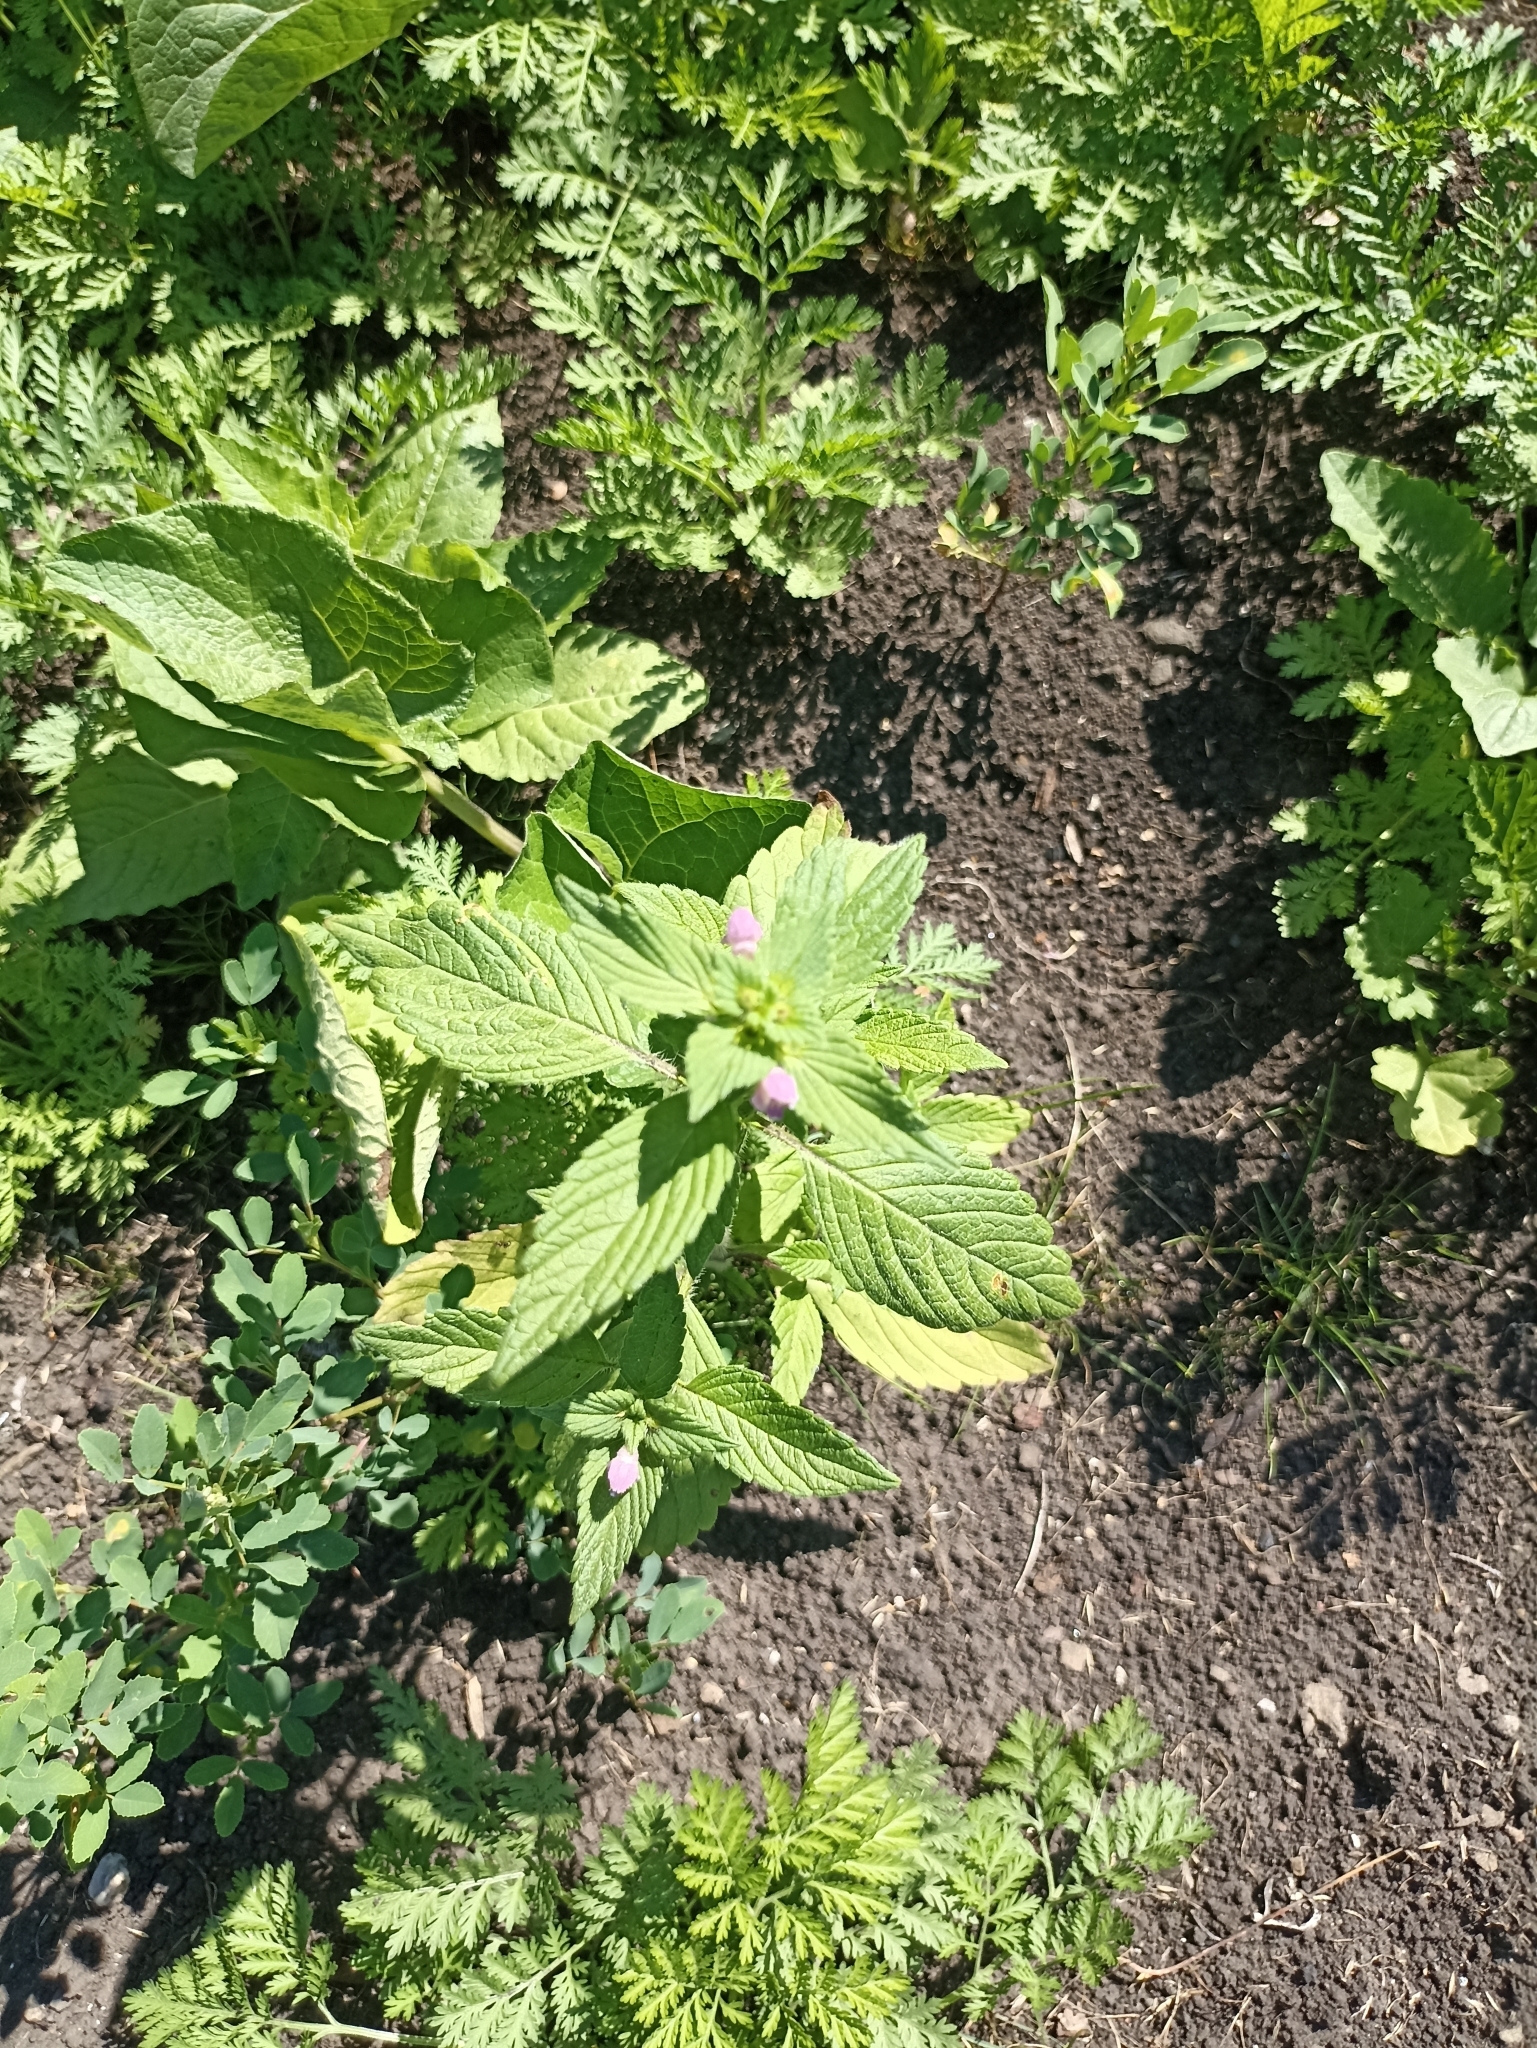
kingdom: Plantae
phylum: Tracheophyta
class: Magnoliopsida
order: Lamiales
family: Lamiaceae
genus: Galeopsis
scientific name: Galeopsis bifida
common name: Bifid hemp-nettle
